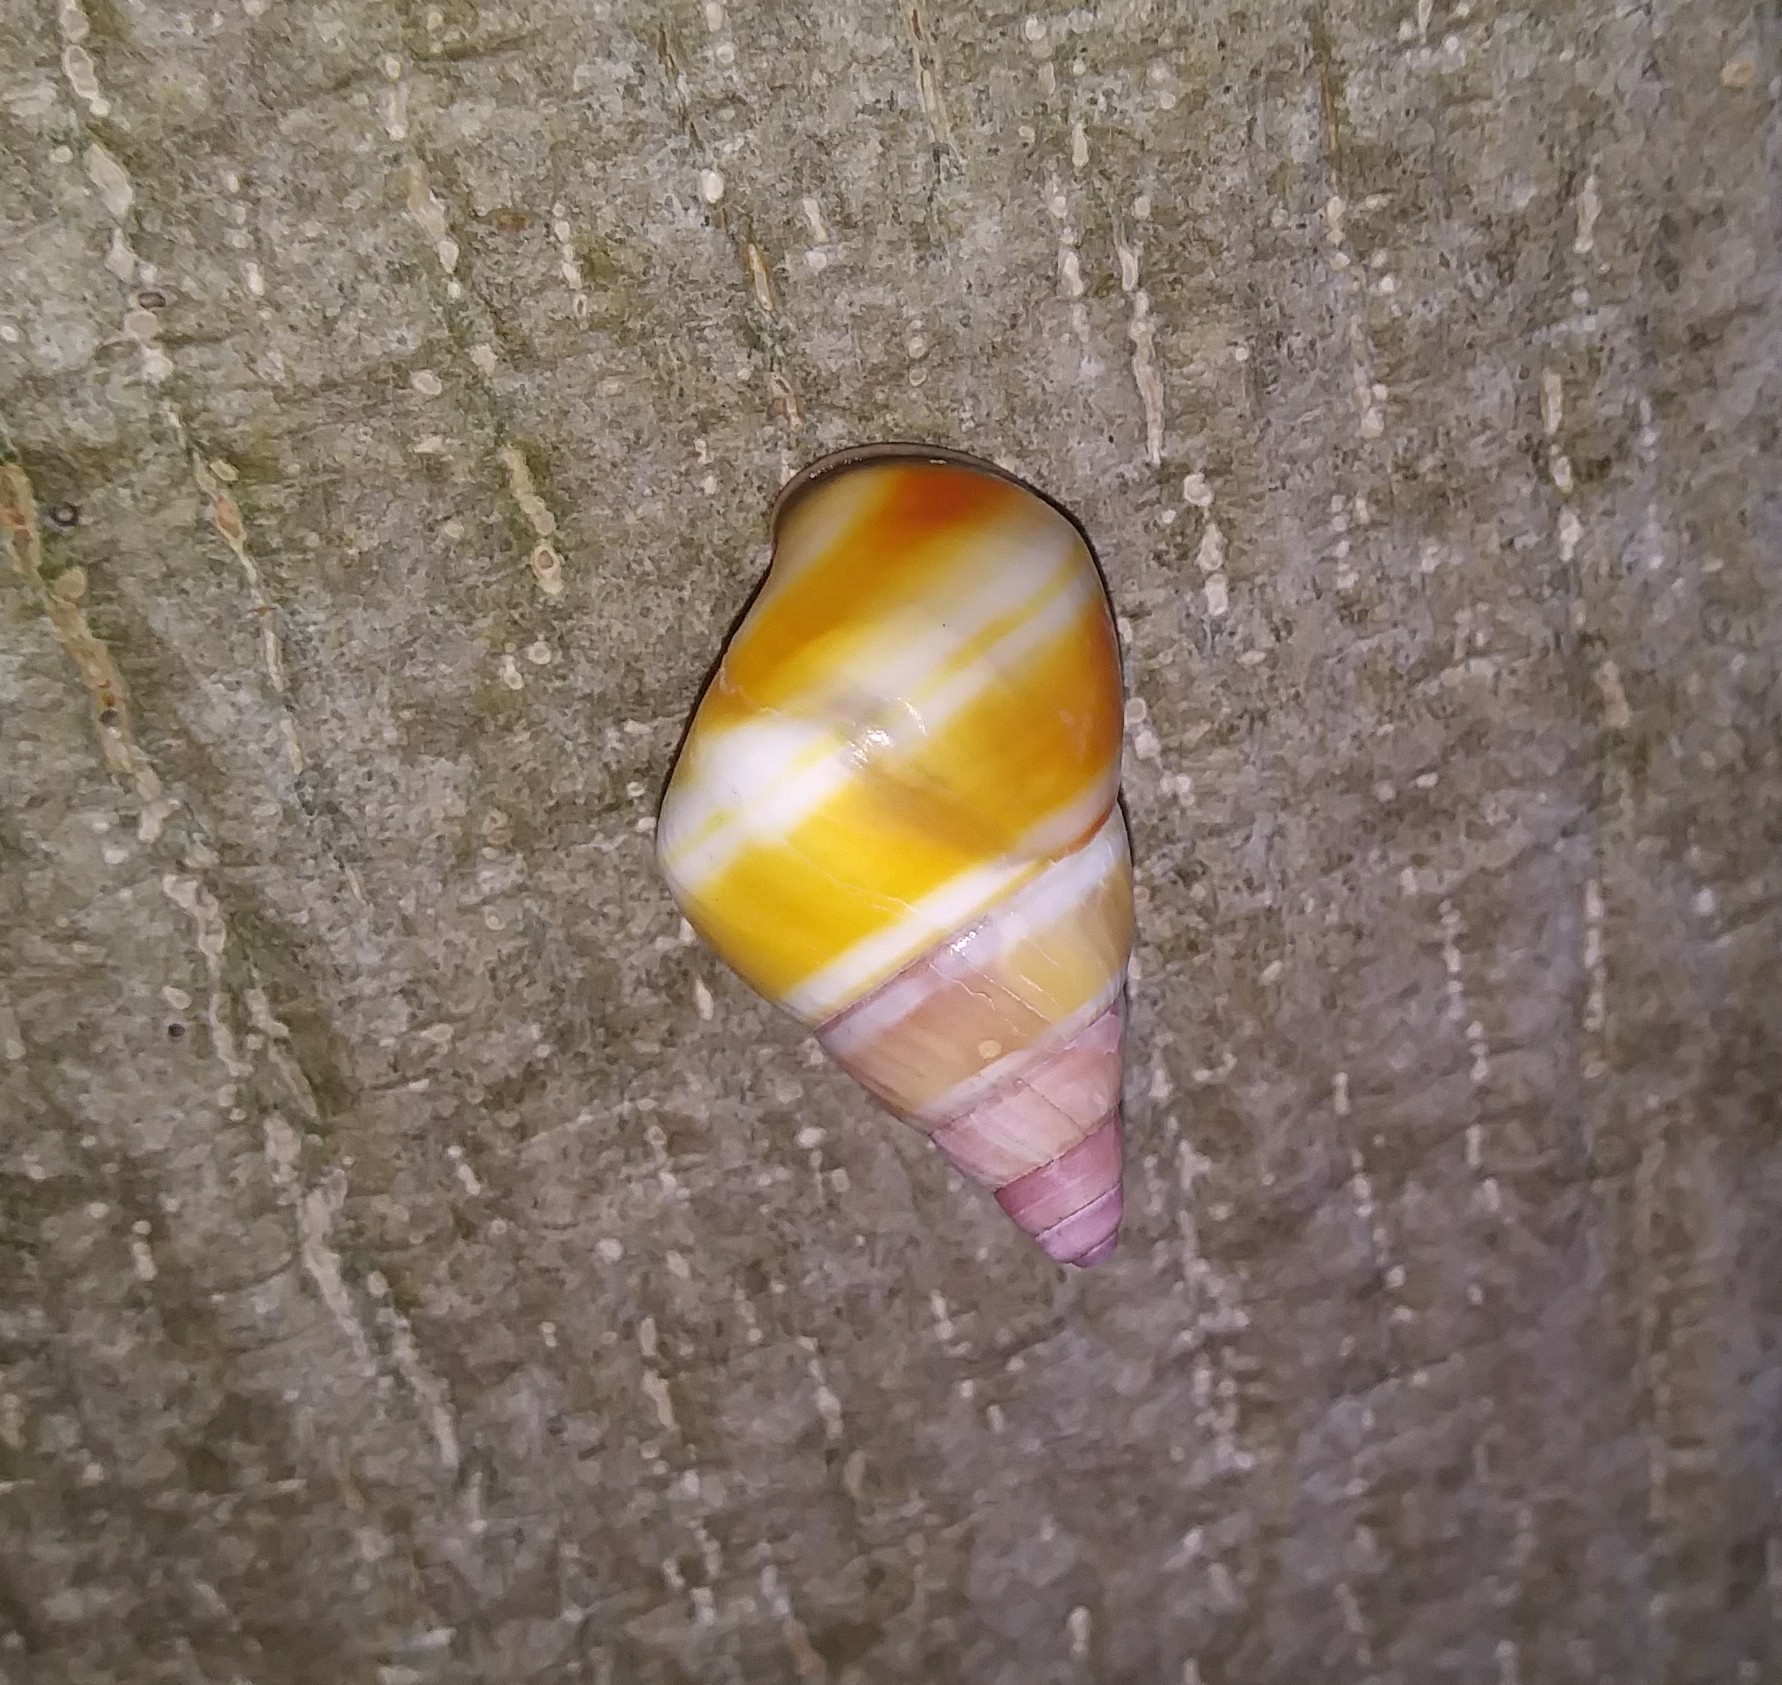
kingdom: Animalia
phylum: Mollusca
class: Gastropoda
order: Stylommatophora
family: Orthalicidae
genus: Liguus
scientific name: Liguus fasciatus
